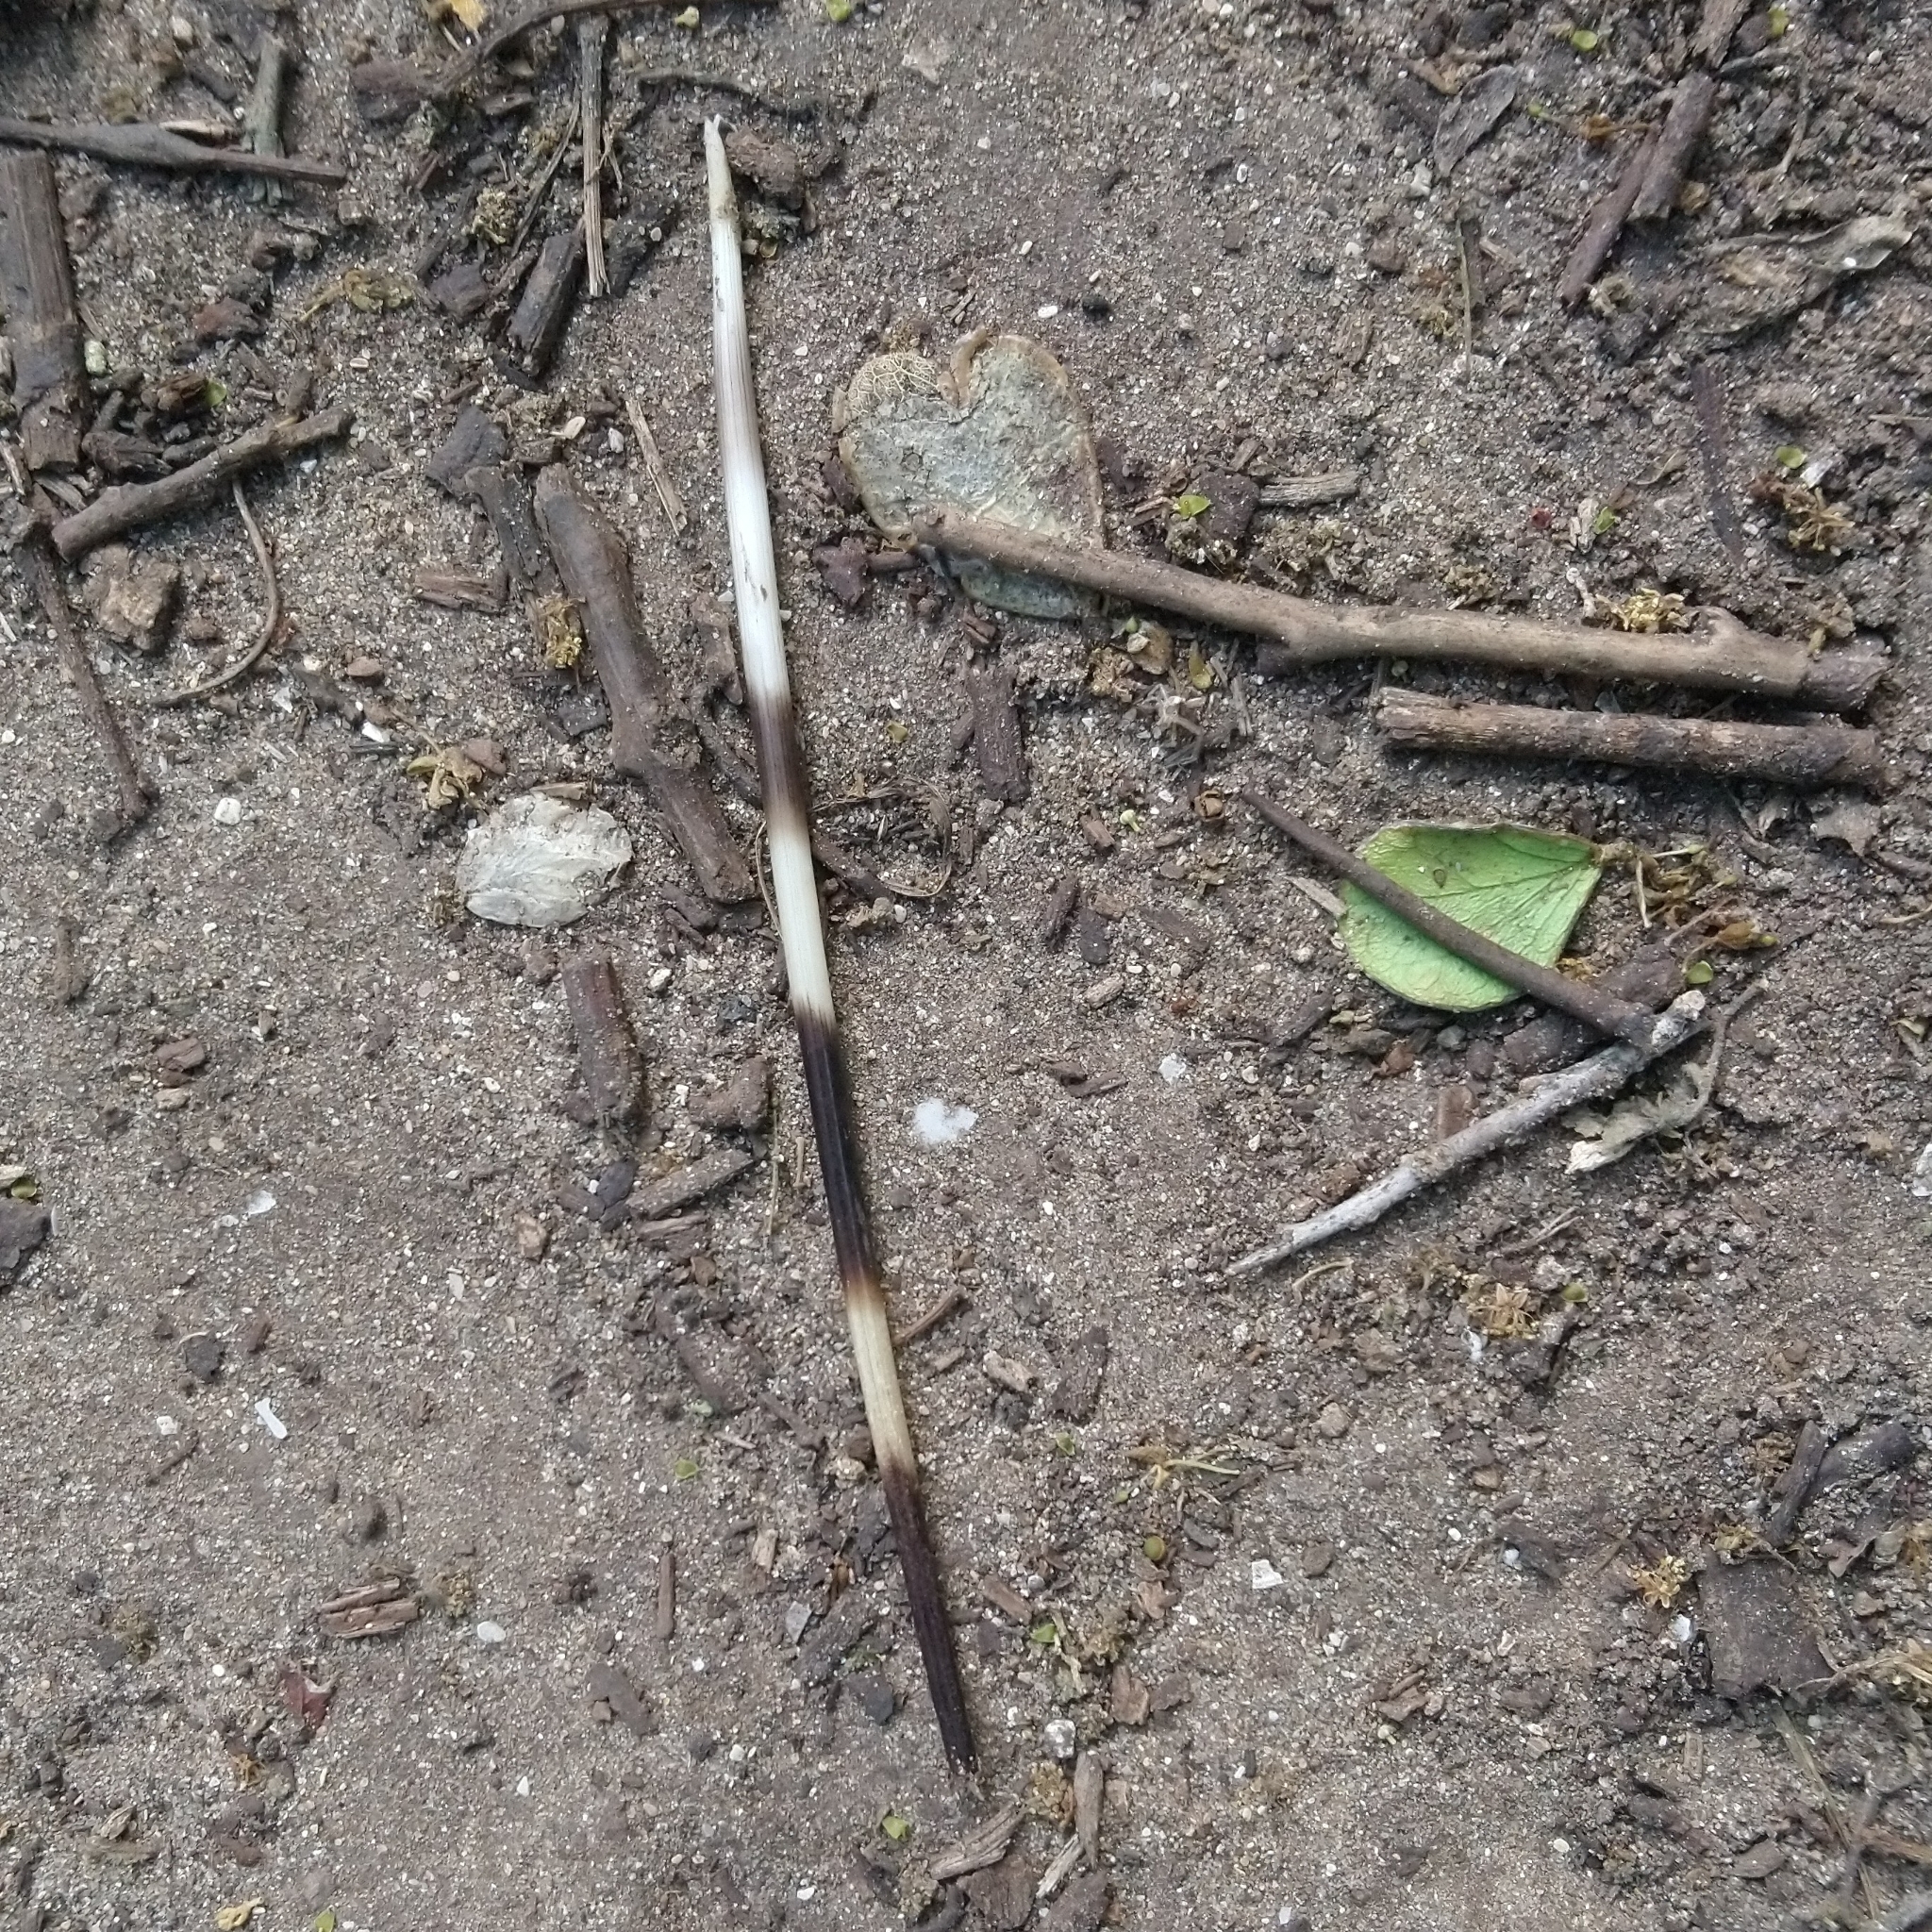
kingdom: Animalia
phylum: Chordata
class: Mammalia
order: Rodentia
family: Hystricidae
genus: Hystrix
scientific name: Hystrix africaeaustralis
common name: Cape porcupine
